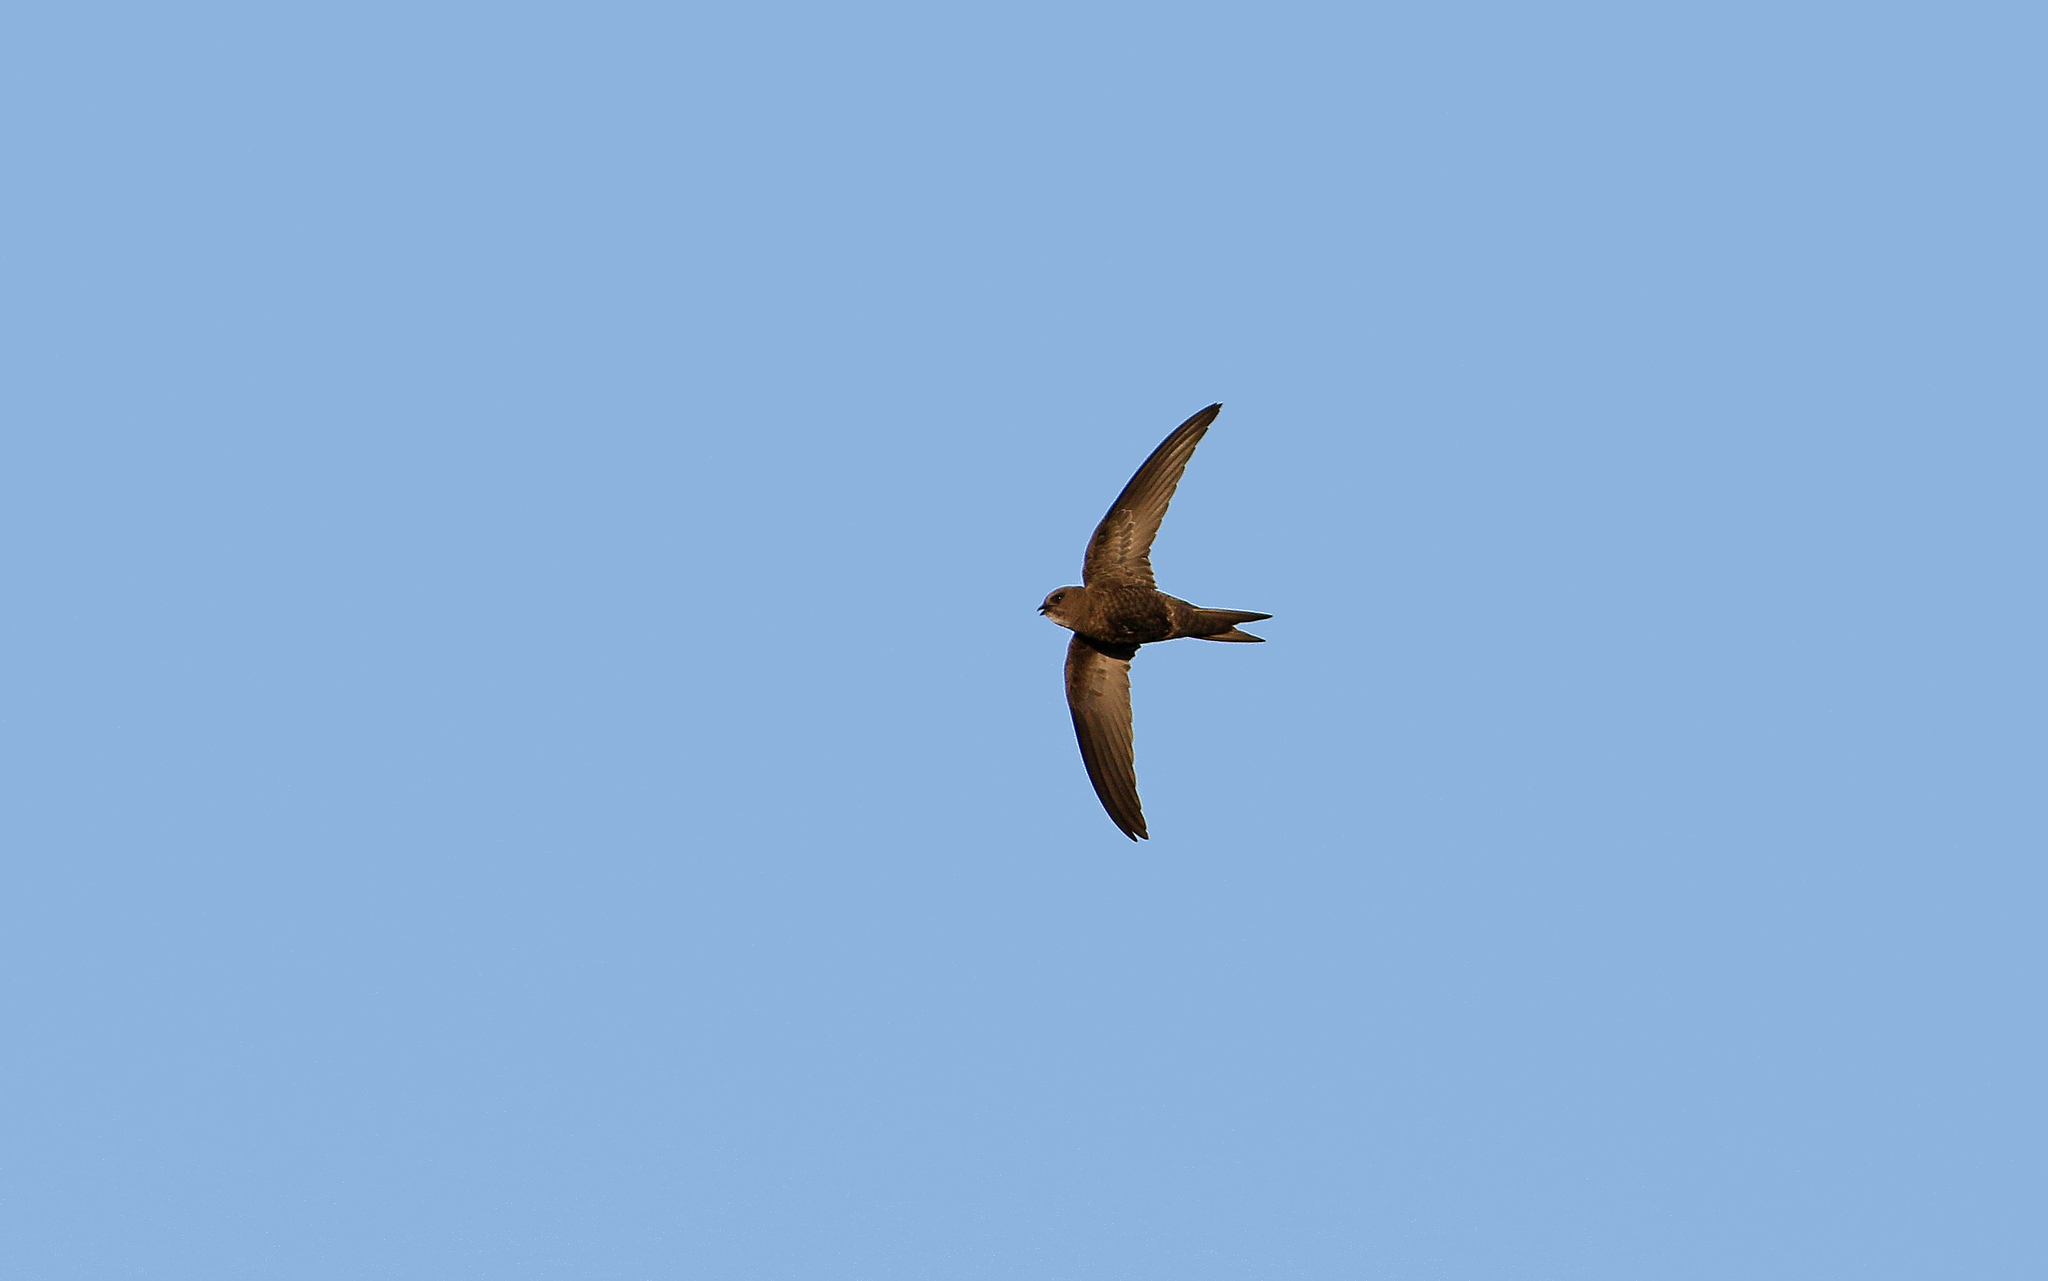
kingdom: Animalia
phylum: Chordata
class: Aves
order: Apodiformes
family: Apodidae
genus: Apus
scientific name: Apus apus
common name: Common swift
